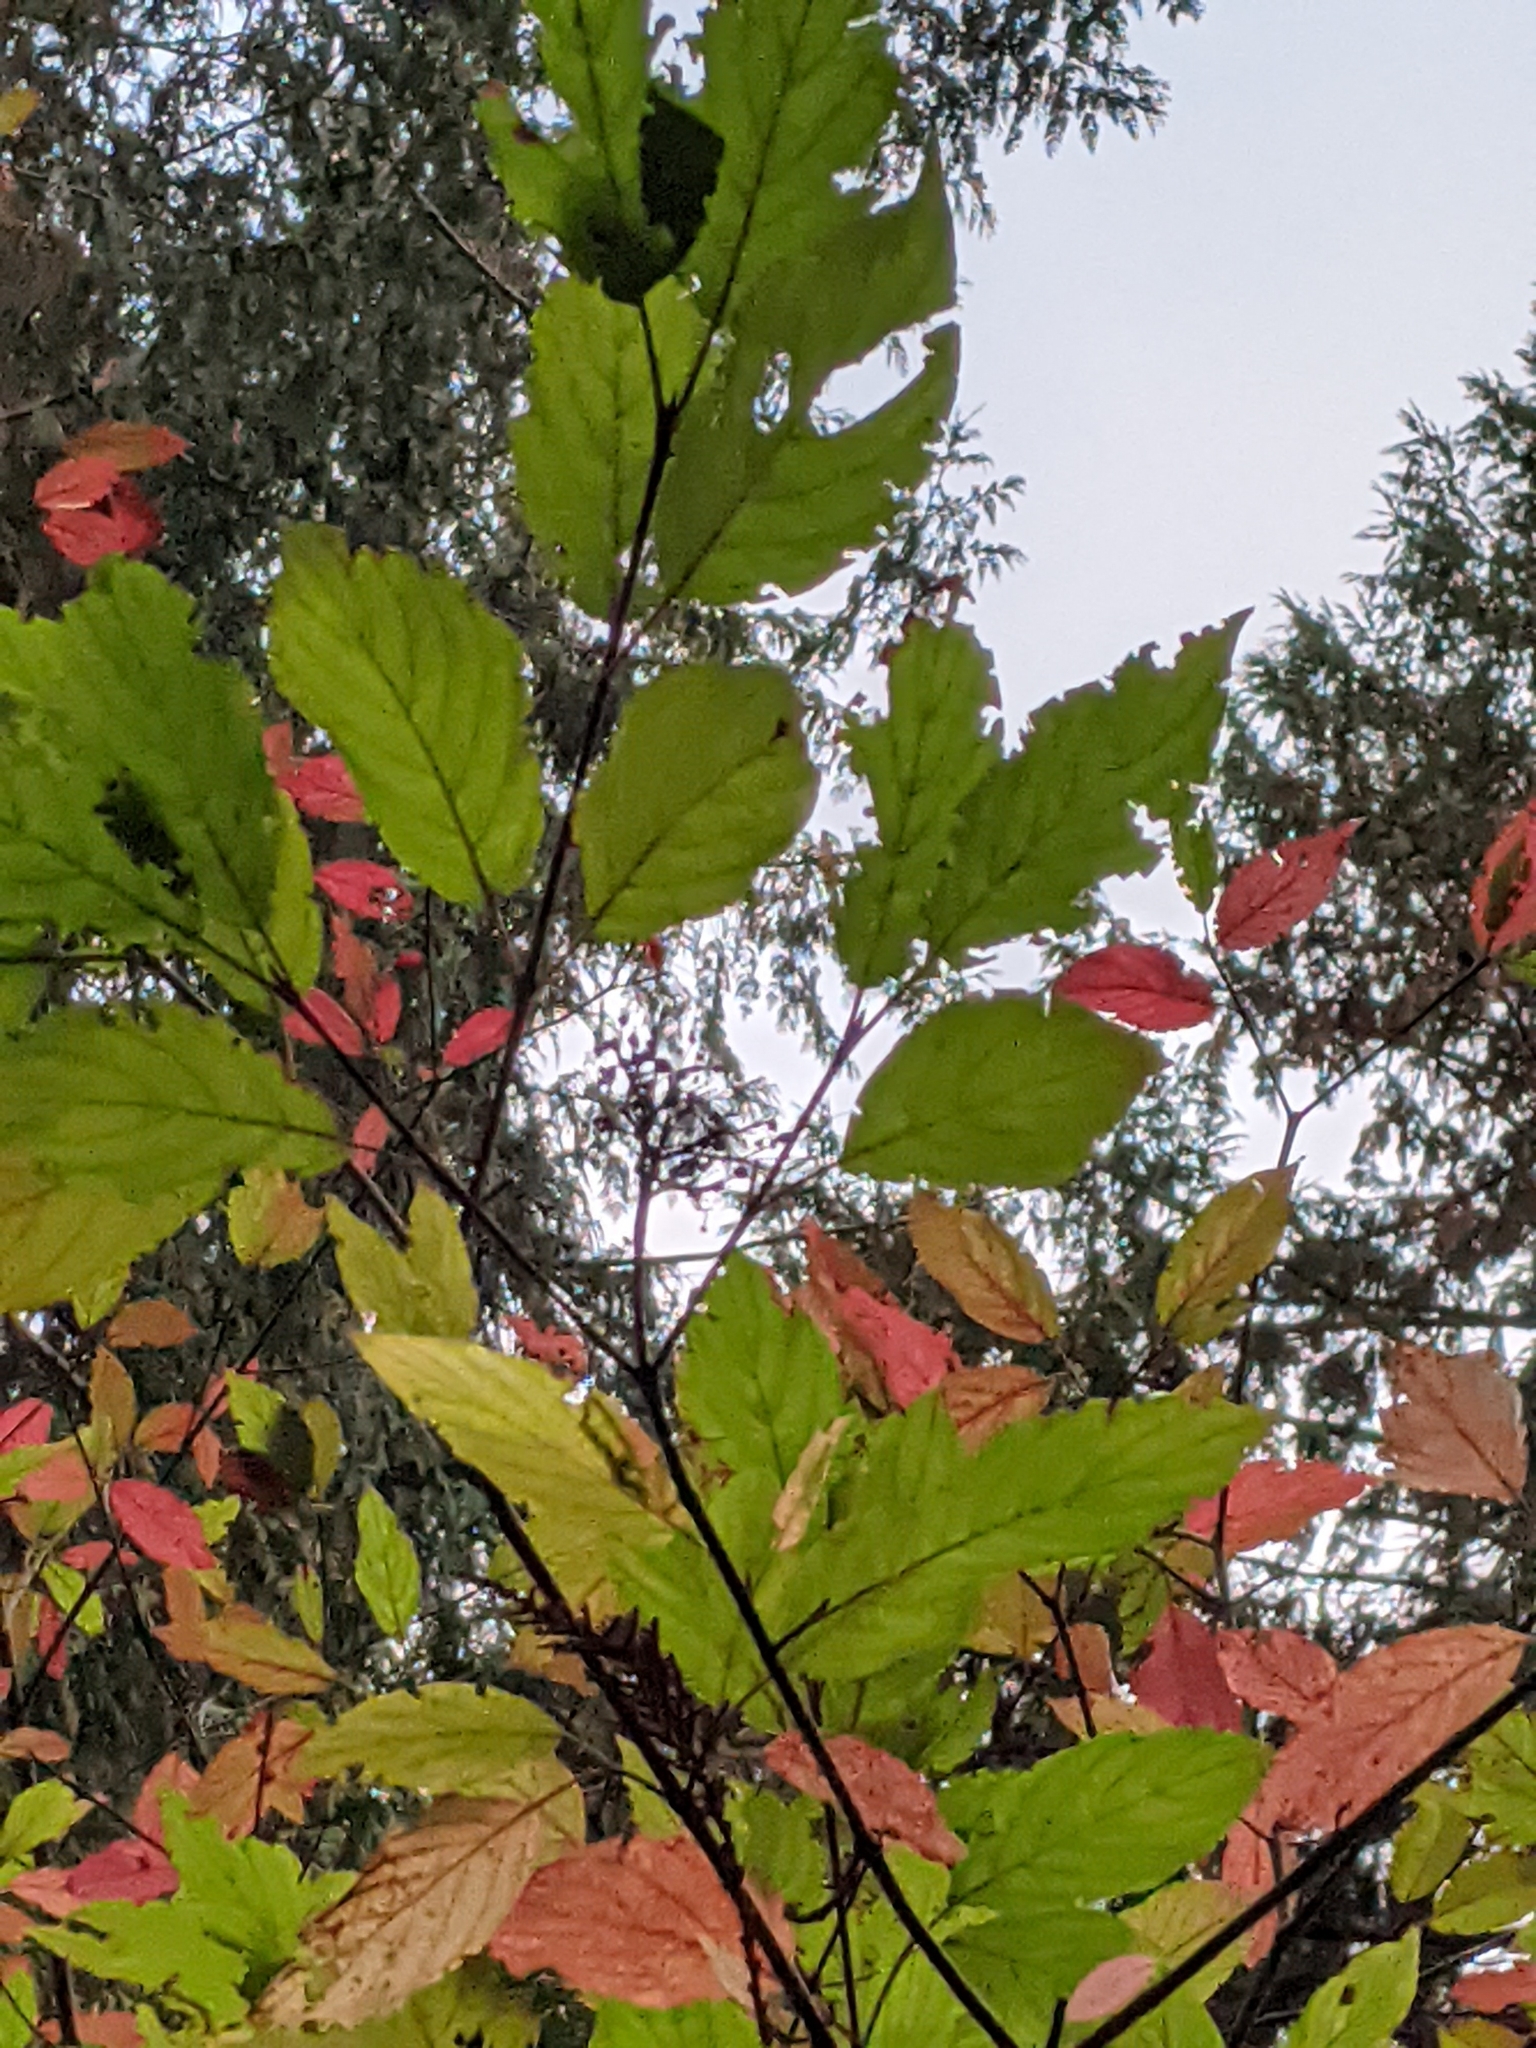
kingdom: Plantae
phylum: Tracheophyta
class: Magnoliopsida
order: Cornales
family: Cornaceae
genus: Cornus
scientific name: Cornus sericea
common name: Red-osier dogwood
